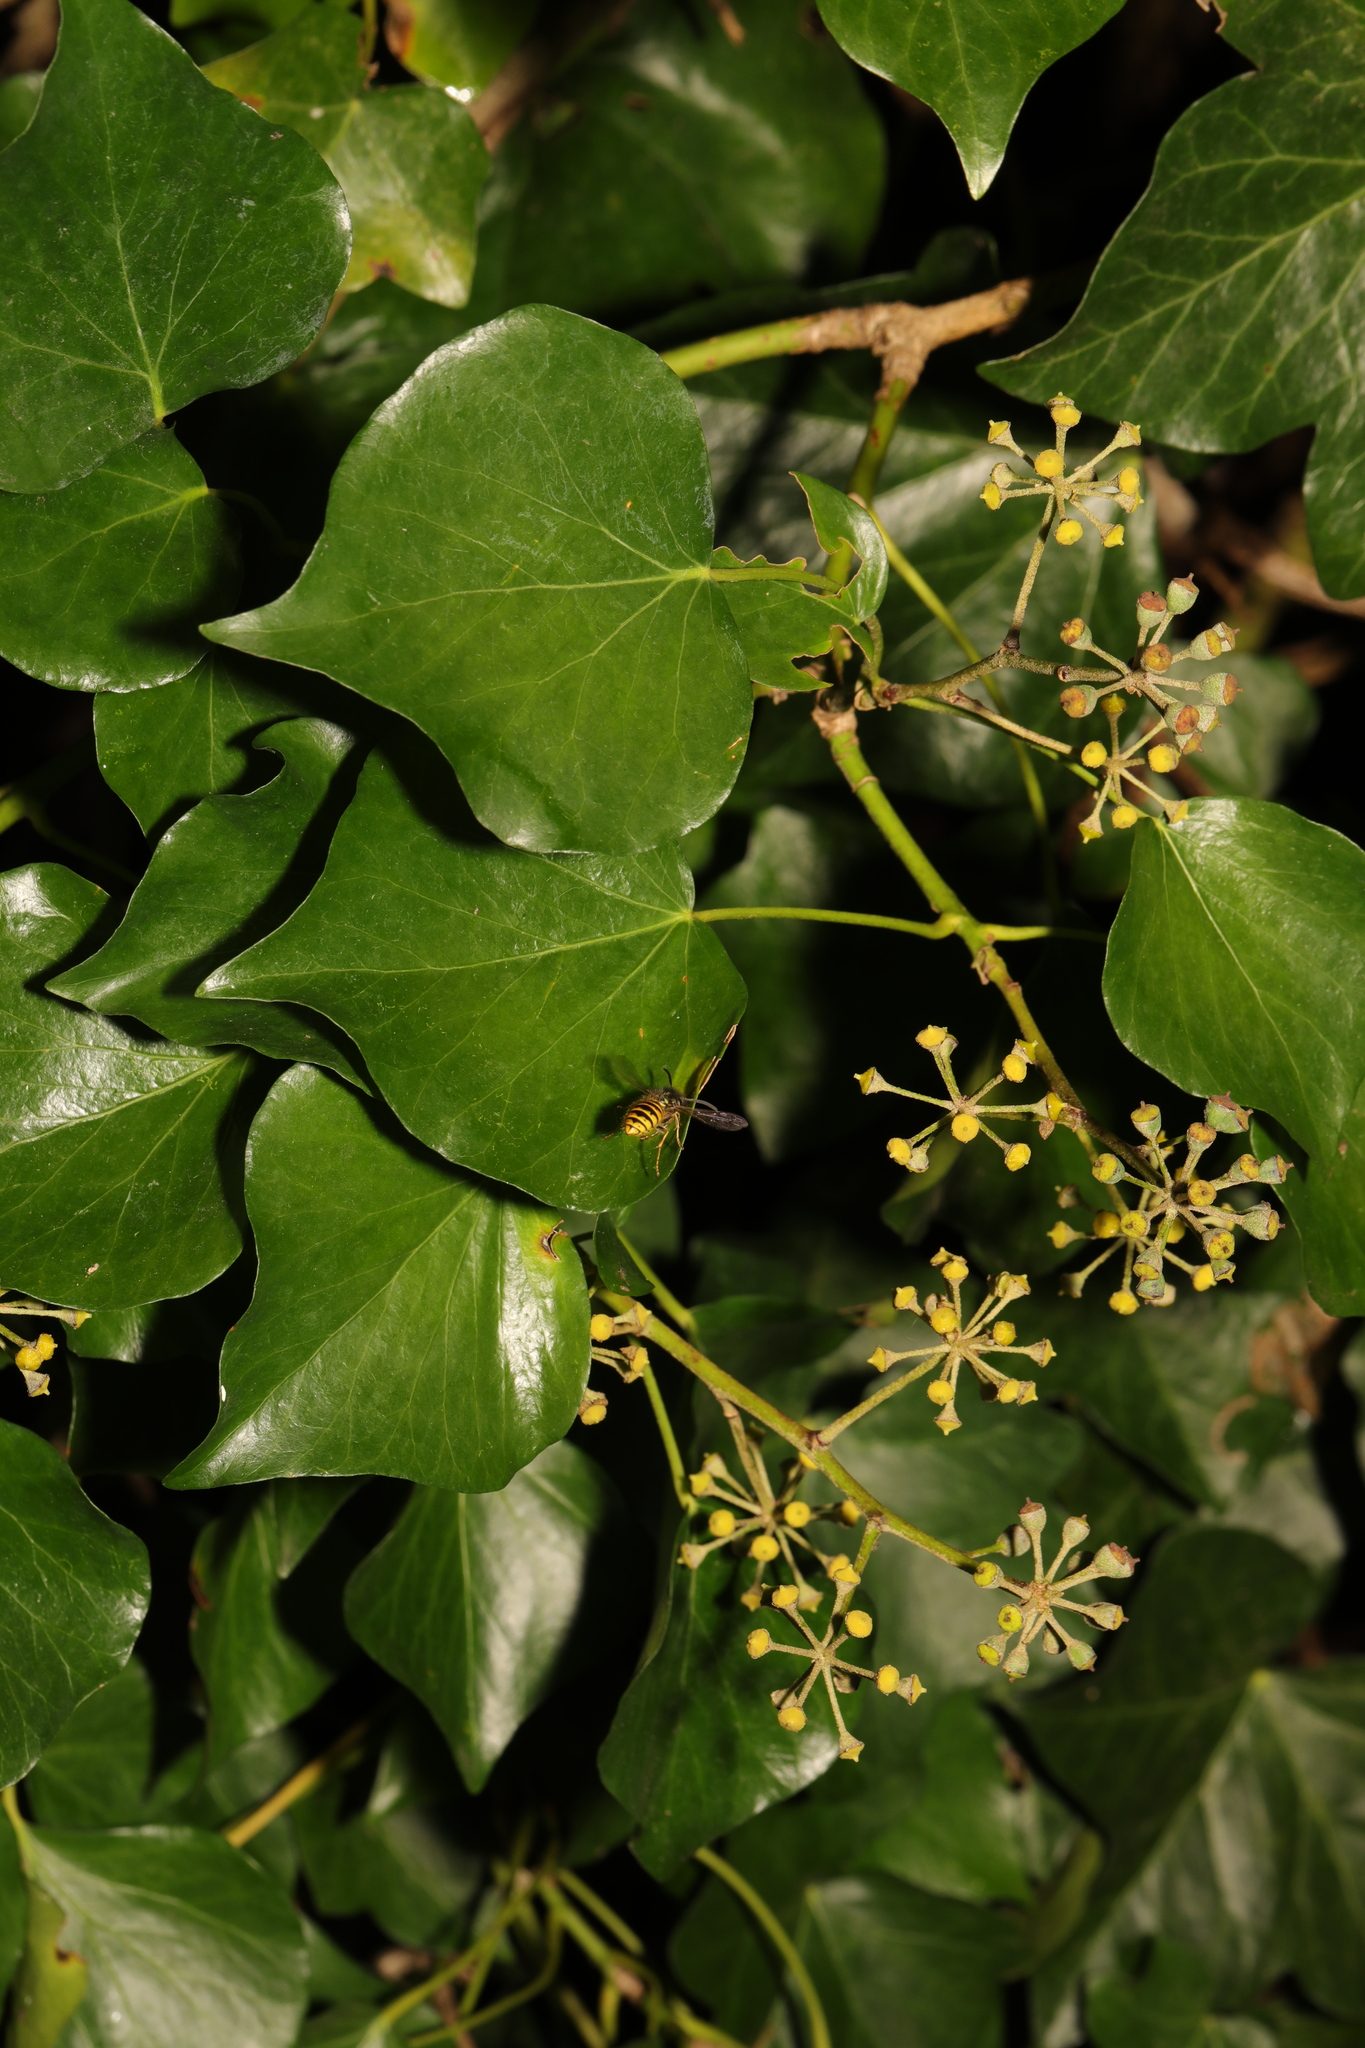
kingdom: Plantae
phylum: Tracheophyta
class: Magnoliopsida
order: Apiales
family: Araliaceae
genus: Hedera
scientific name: Hedera helix
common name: Ivy
